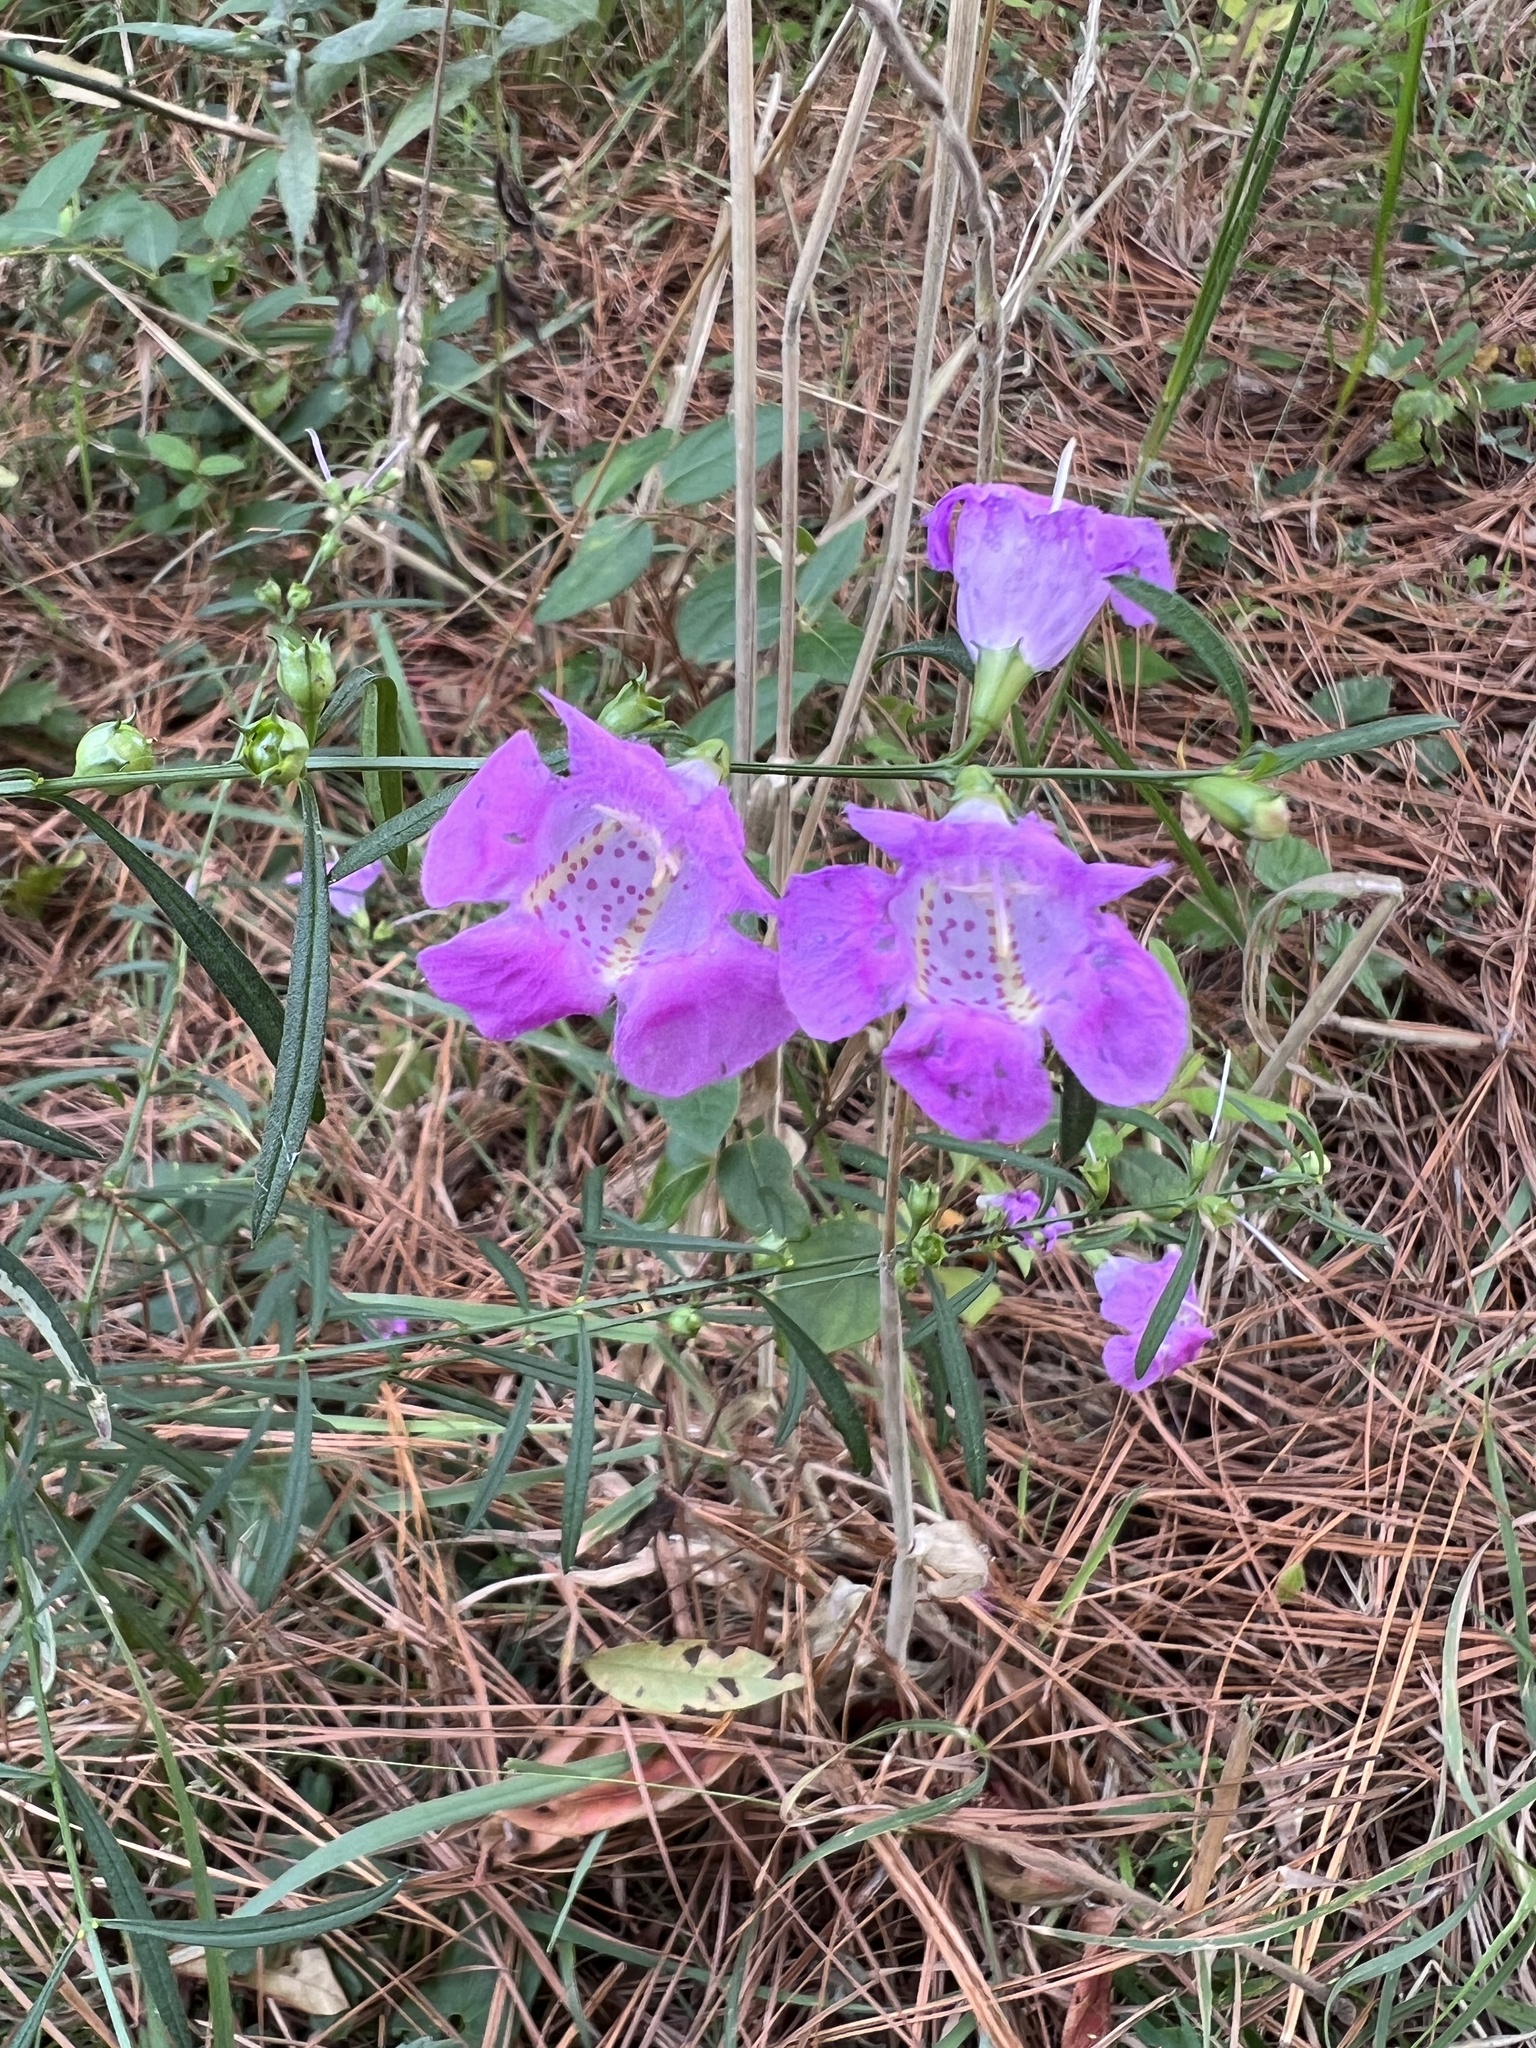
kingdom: Plantae
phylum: Tracheophyta
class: Magnoliopsida
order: Lamiales
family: Orobanchaceae
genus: Agalinis
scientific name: Agalinis purpurea
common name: Purple false foxglove
